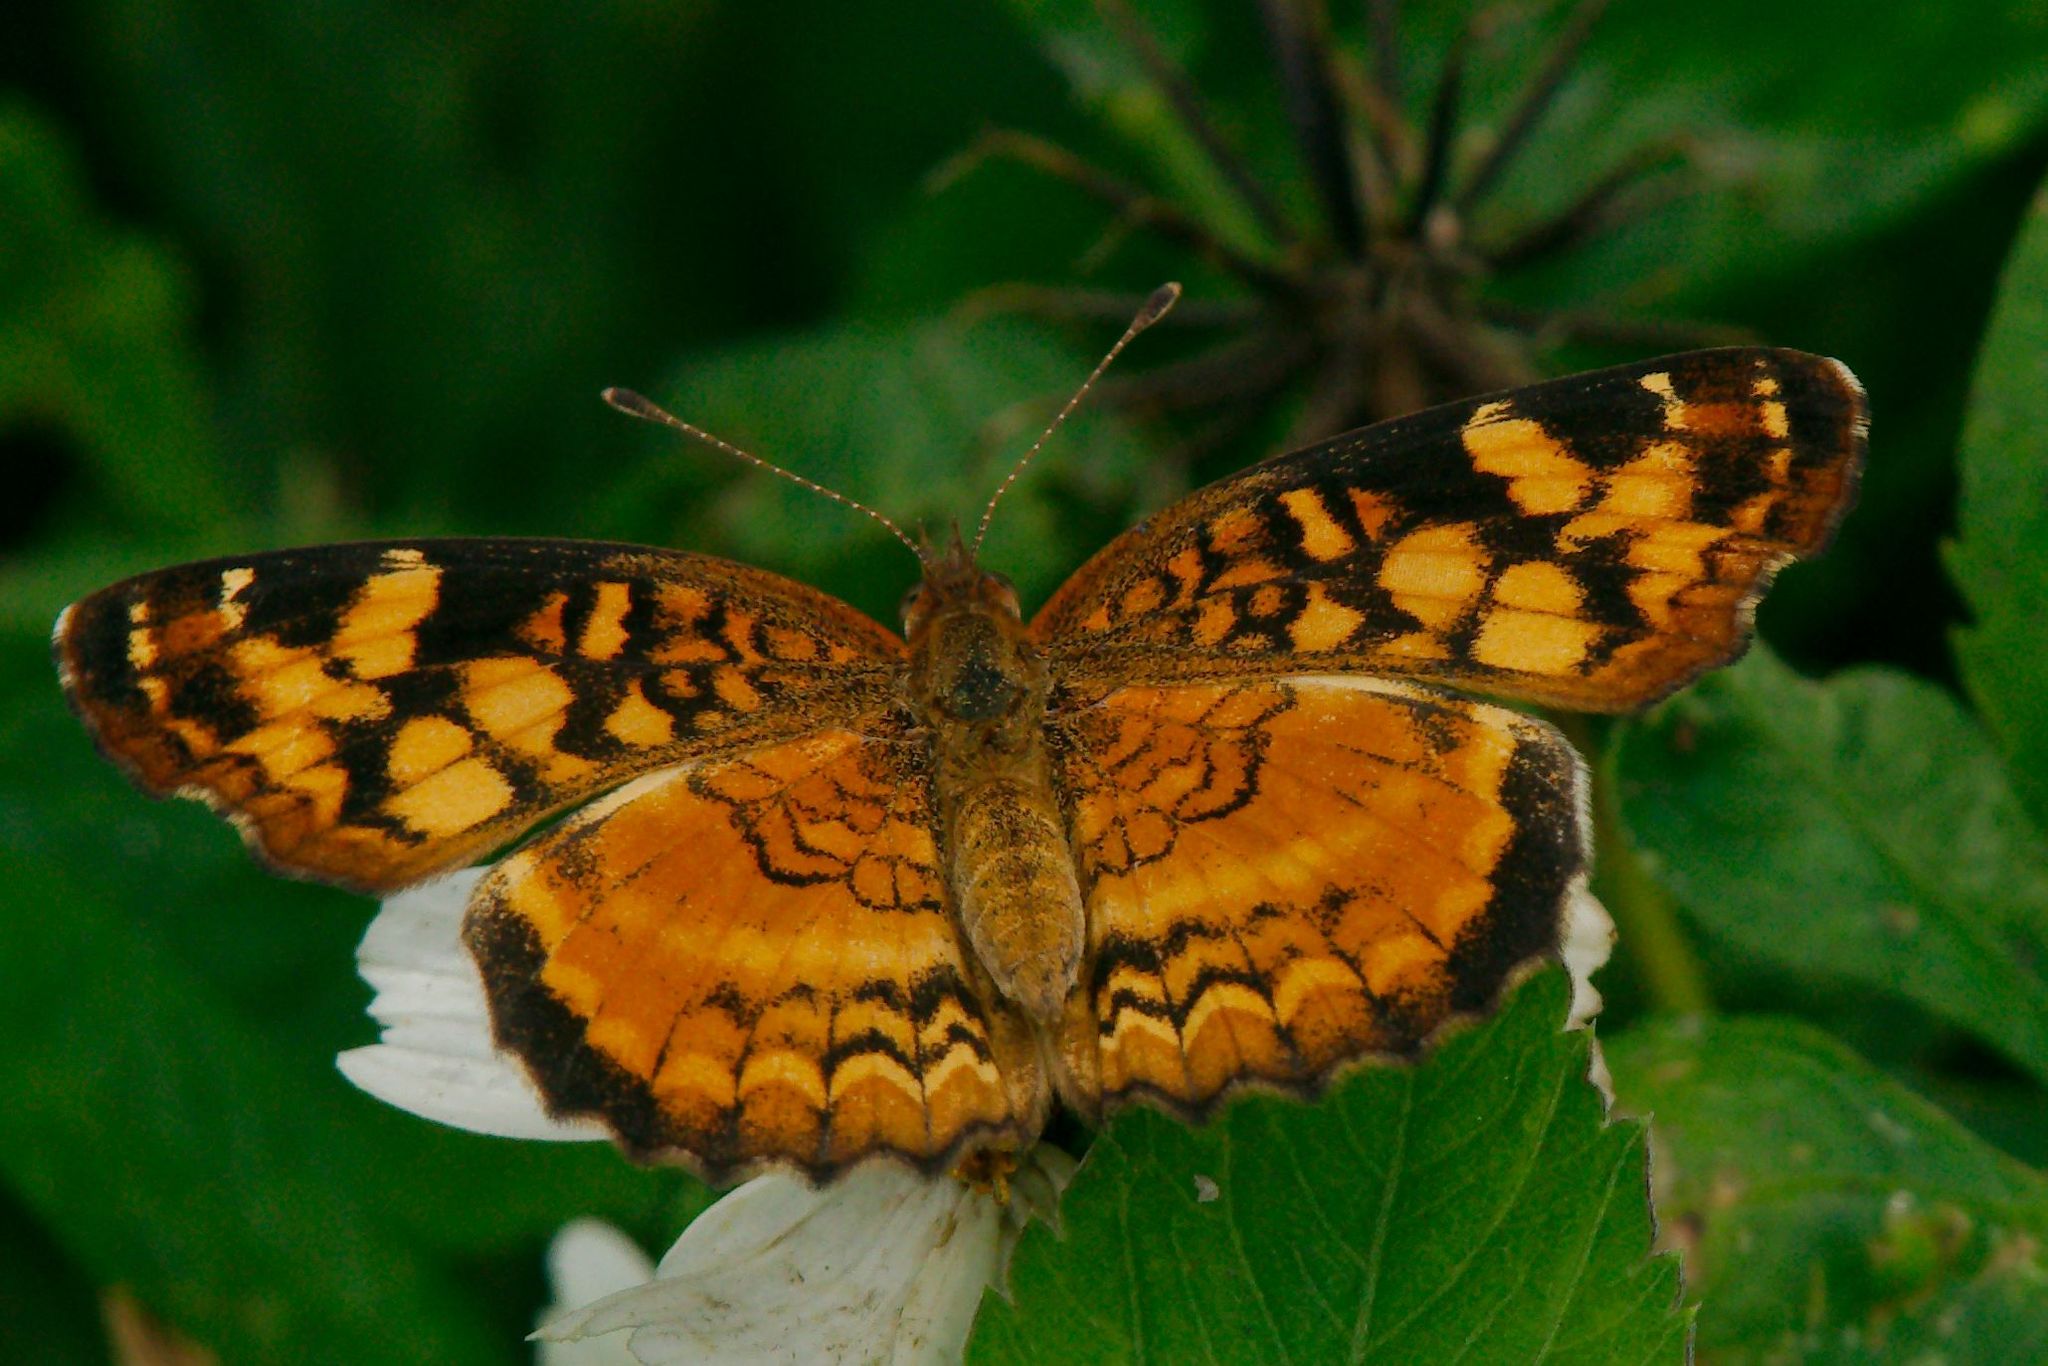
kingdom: Animalia
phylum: Arthropoda
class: Insecta
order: Lepidoptera
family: Nymphalidae
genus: Anthanassa
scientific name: Anthanassa frisia
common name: Cuban crescent
